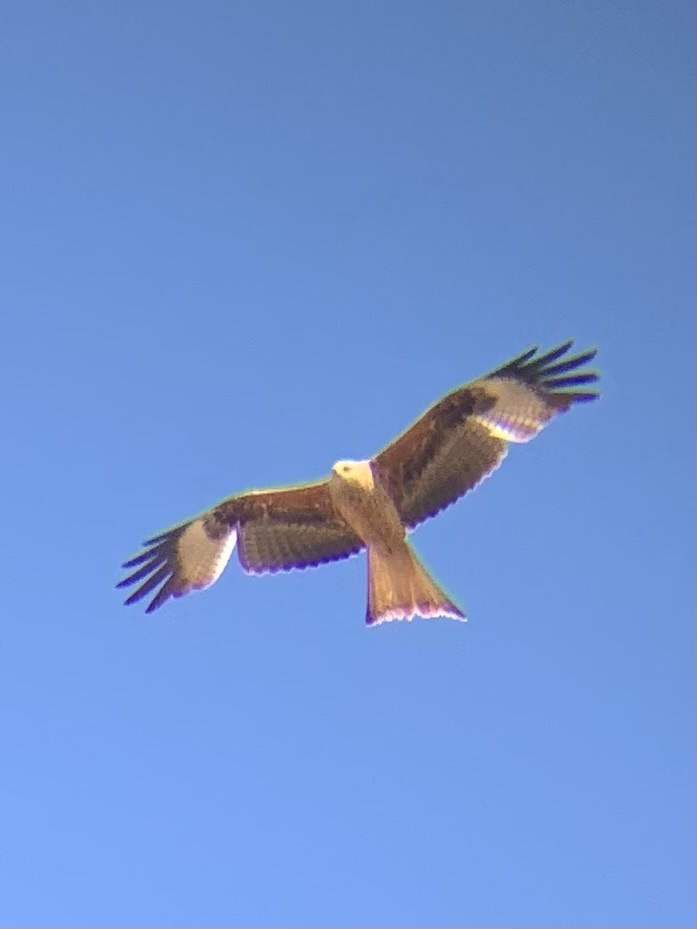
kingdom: Animalia
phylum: Chordata
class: Aves
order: Accipitriformes
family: Accipitridae
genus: Milvus
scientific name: Milvus milvus
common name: Red kite
